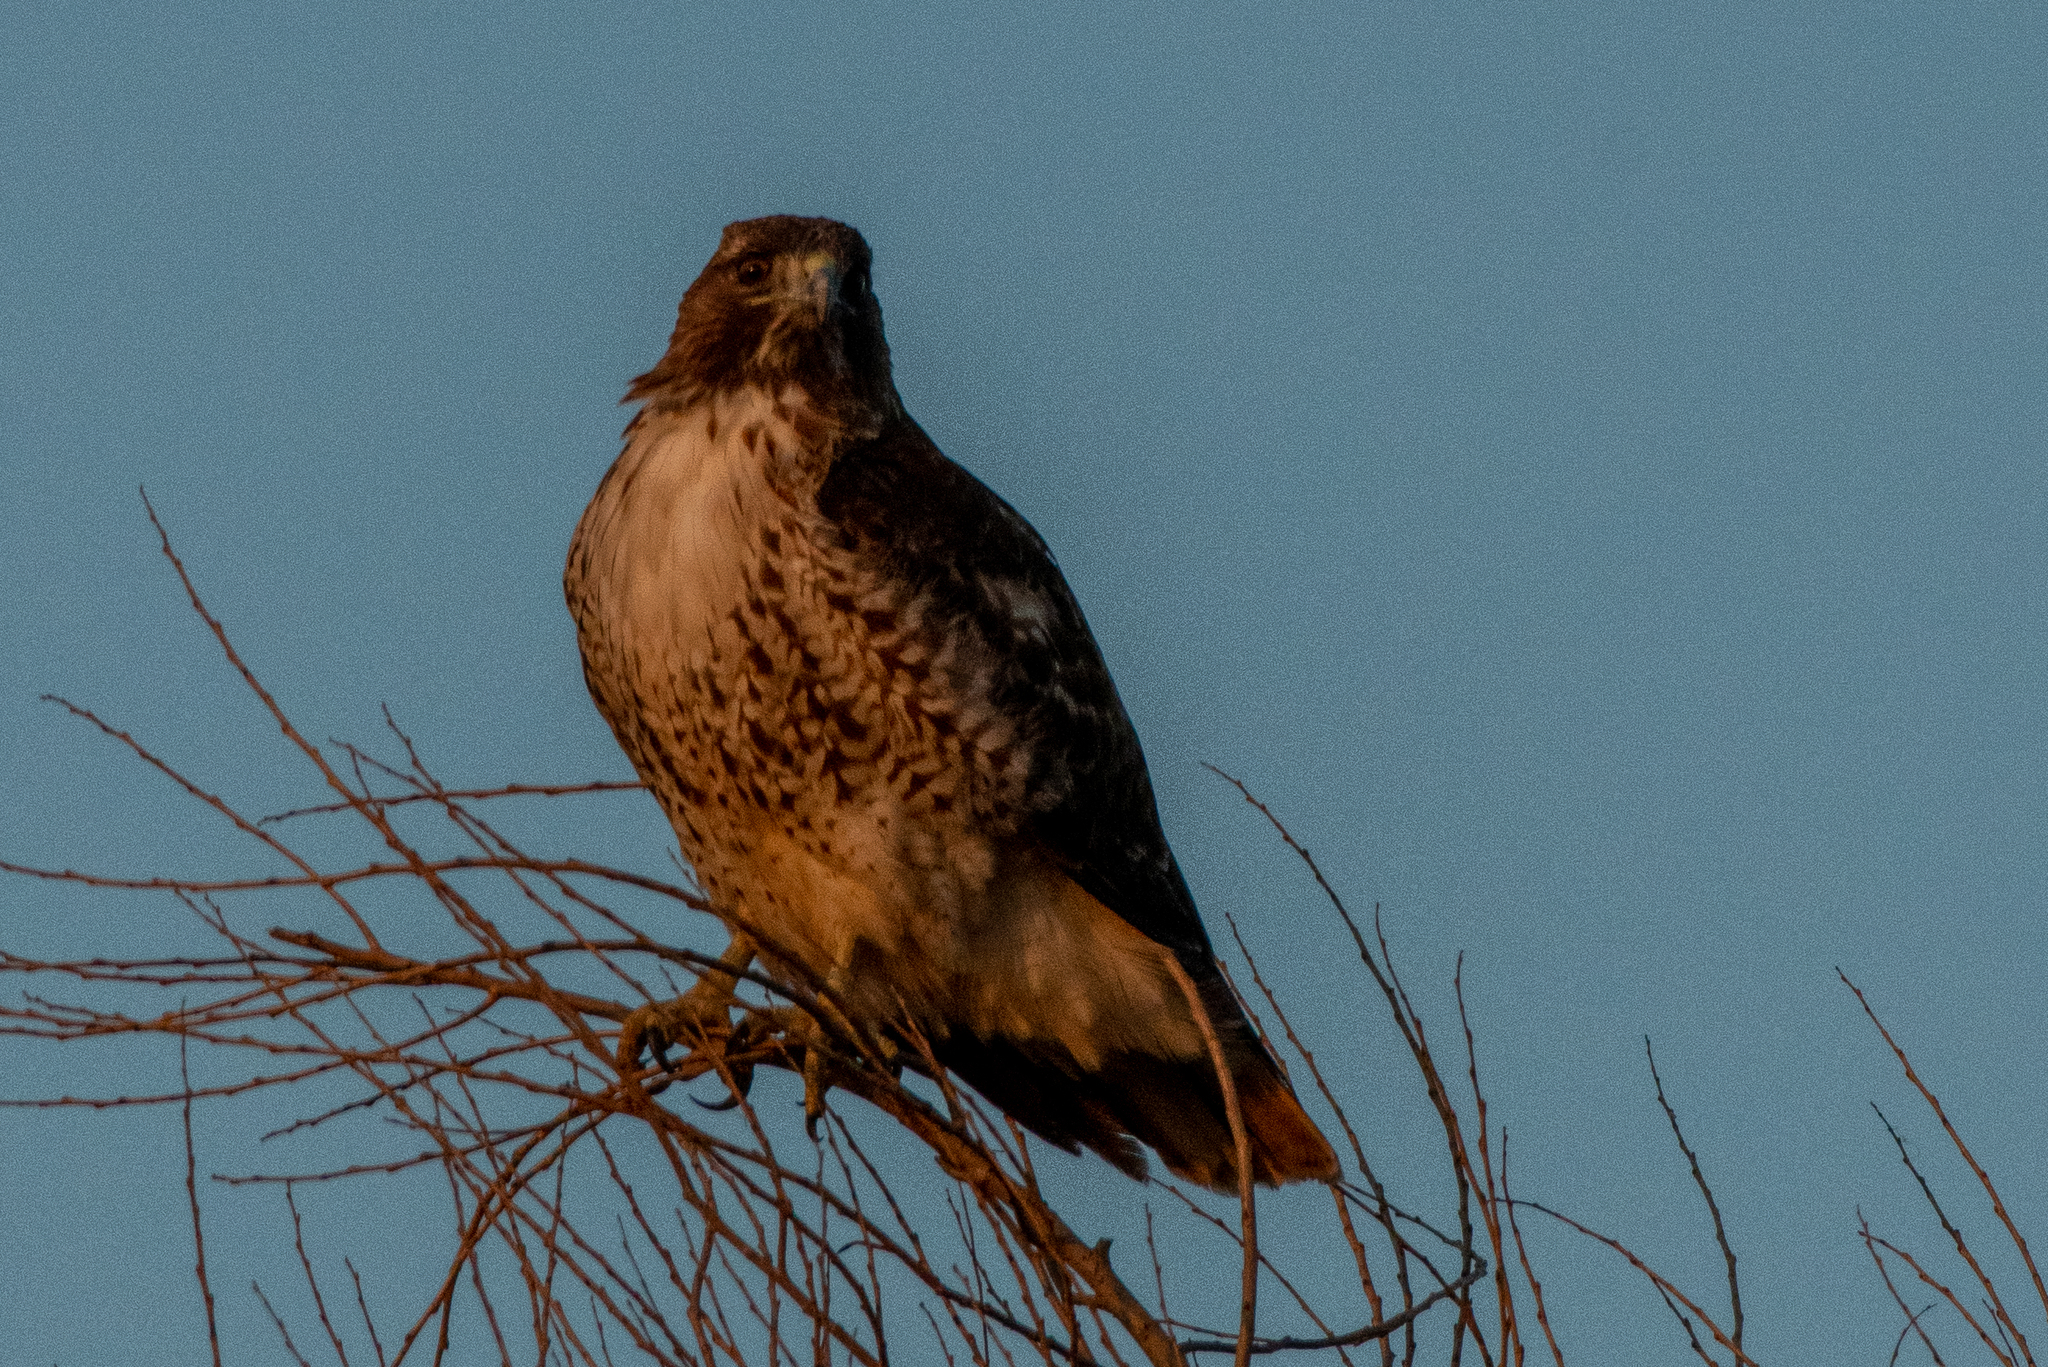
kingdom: Animalia
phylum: Chordata
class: Aves
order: Accipitriformes
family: Accipitridae
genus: Buteo
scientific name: Buteo jamaicensis
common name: Red-tailed hawk
